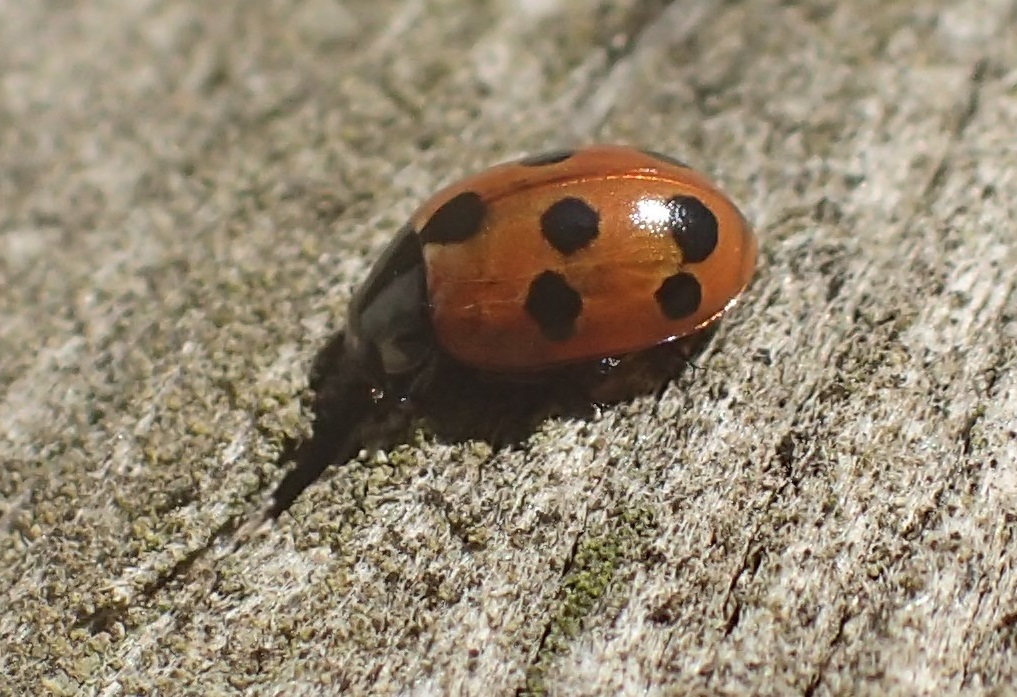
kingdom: Animalia
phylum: Arthropoda
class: Insecta
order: Coleoptera
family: Coccinellidae
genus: Coccinella
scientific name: Coccinella undecimpunctata
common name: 11-spot ladybird
